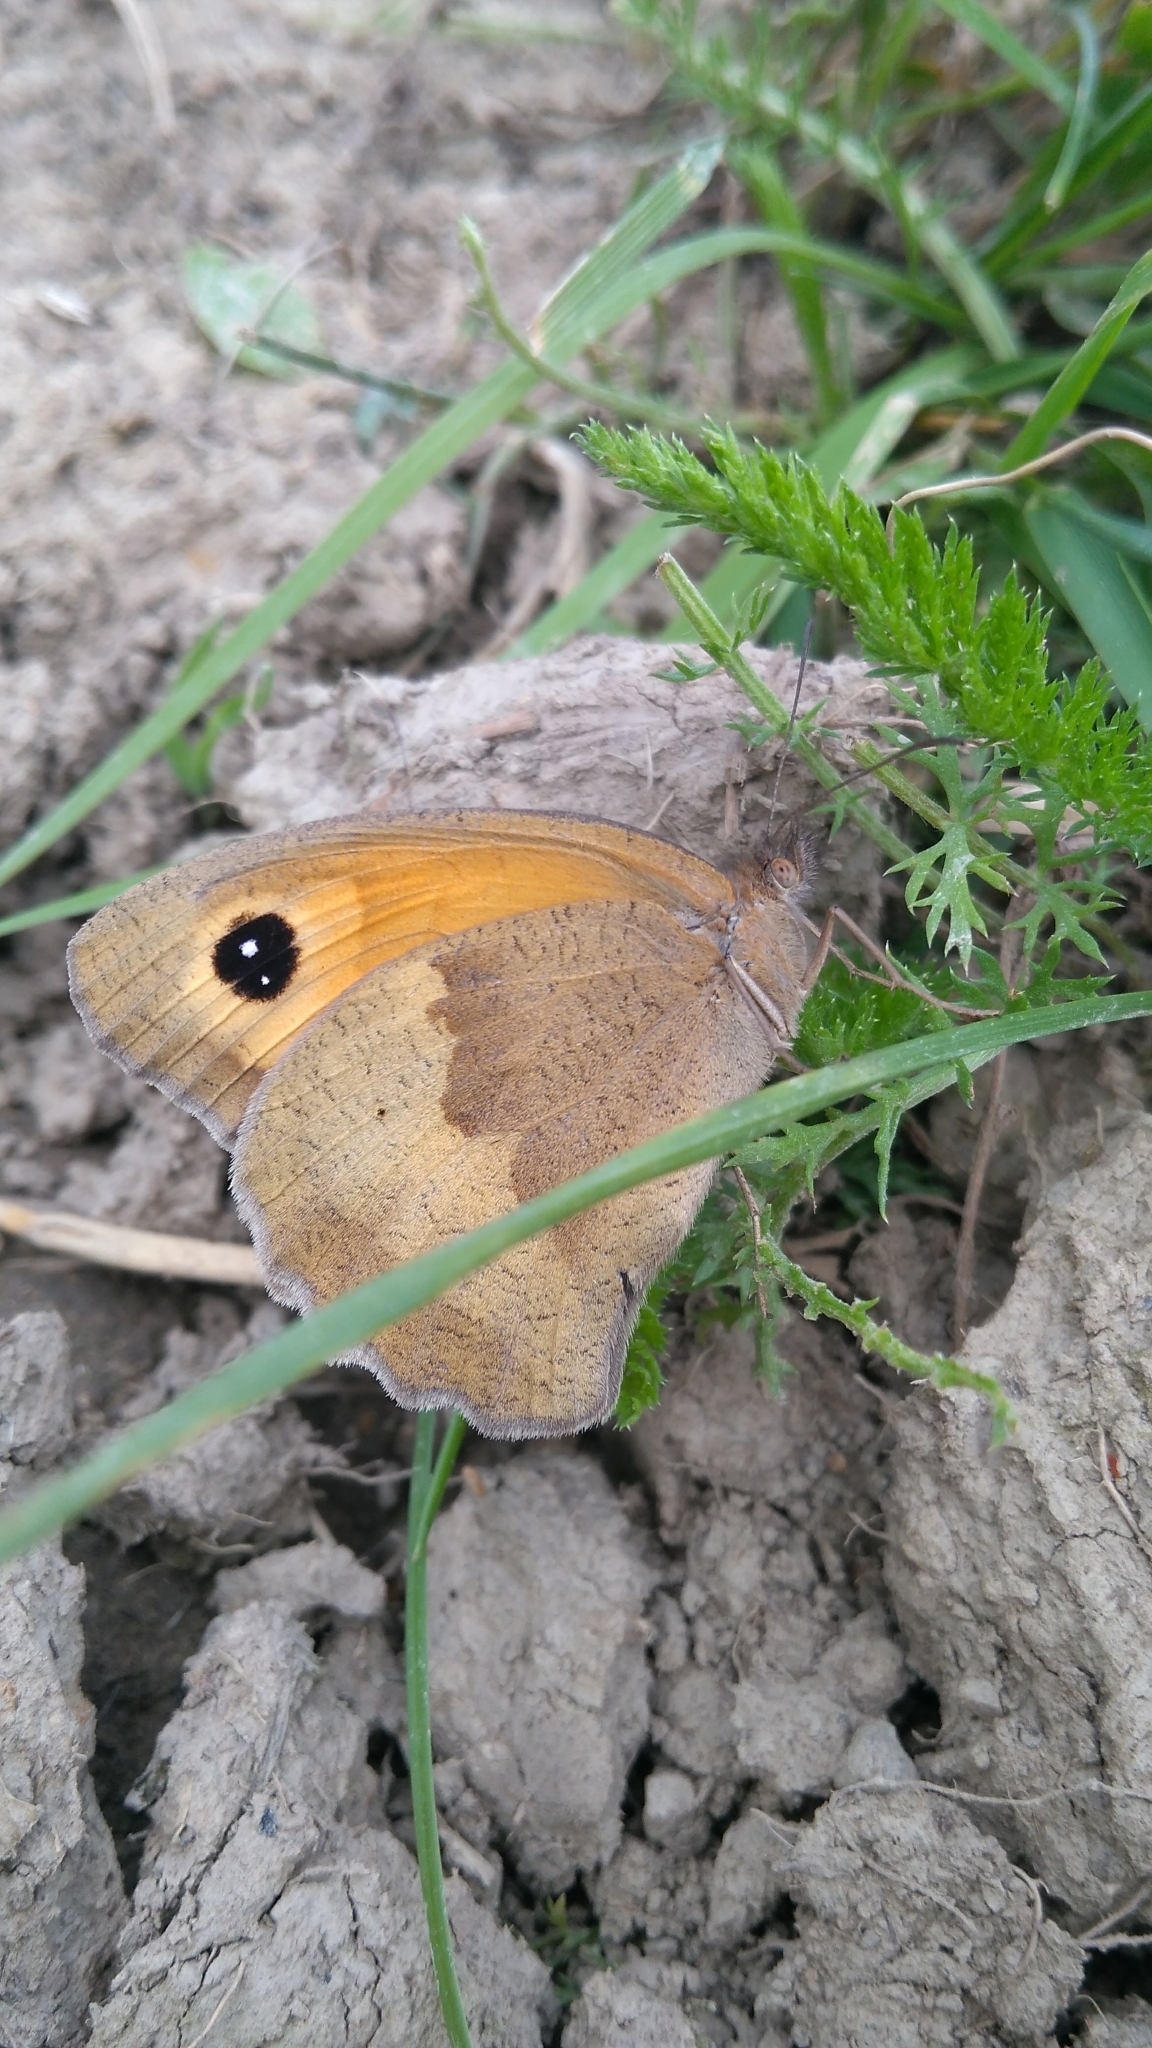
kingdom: Animalia
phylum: Arthropoda
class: Insecta
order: Lepidoptera
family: Nymphalidae
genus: Maniola
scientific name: Maniola jurtina
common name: Meadow brown
